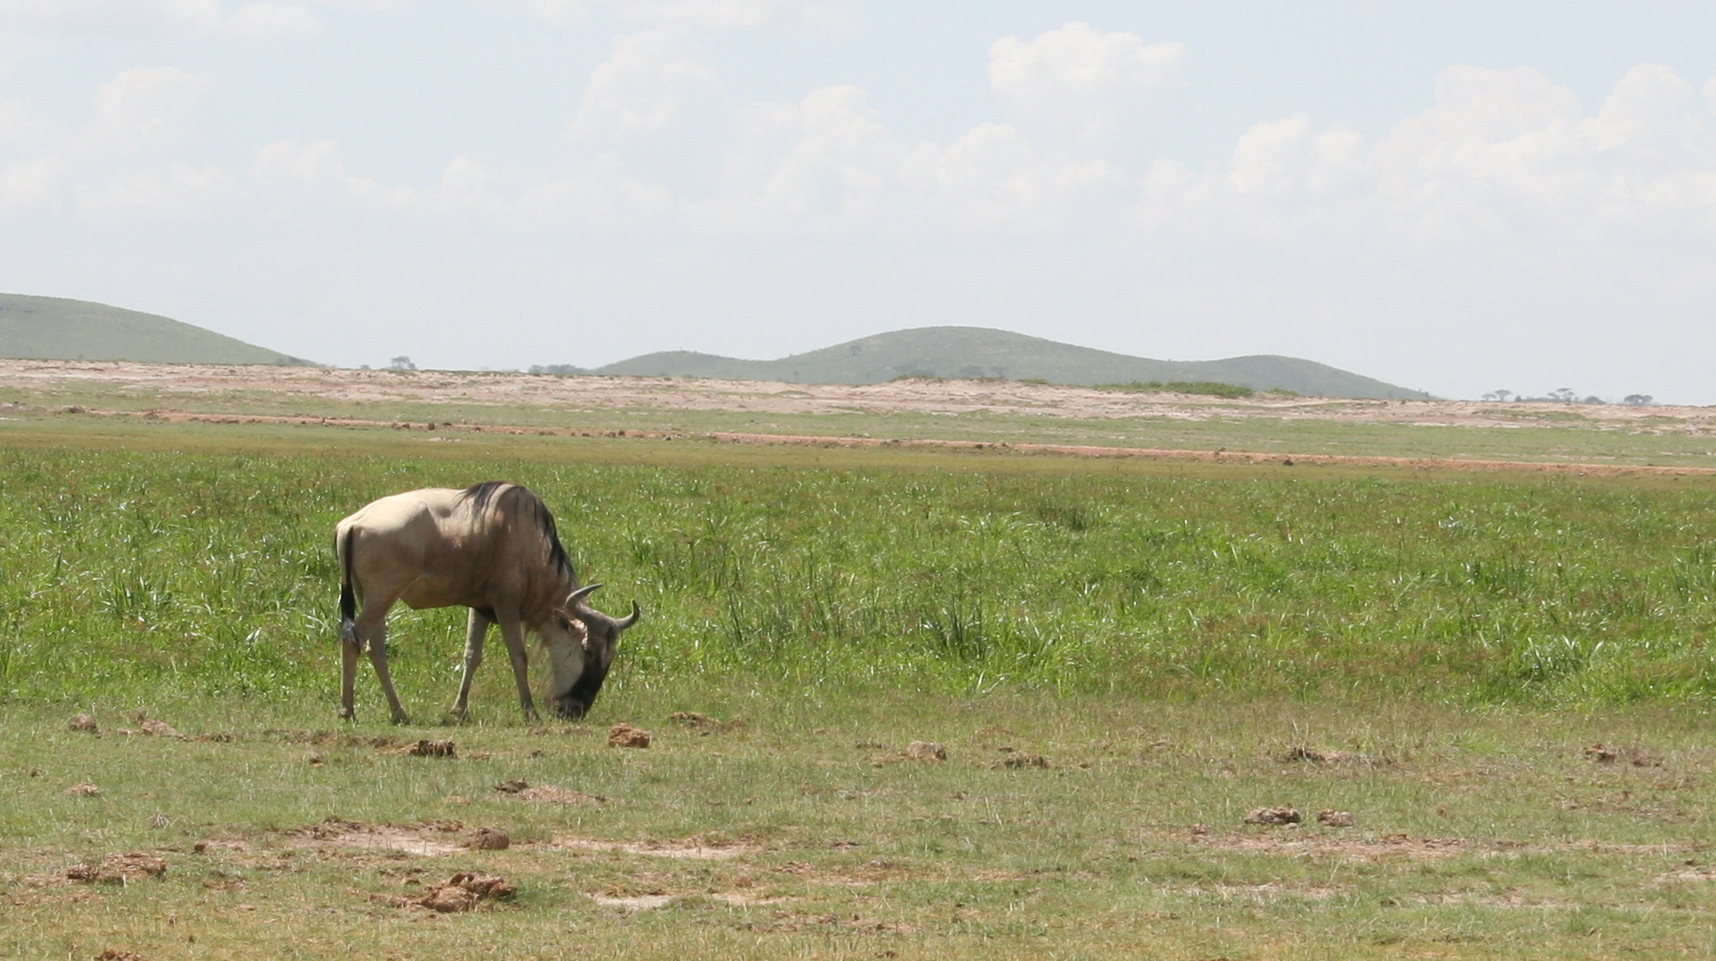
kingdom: Animalia
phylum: Chordata
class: Mammalia
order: Artiodactyla
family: Bovidae
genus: Connochaetes
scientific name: Connochaetes taurinus
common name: Blue wildebeest
